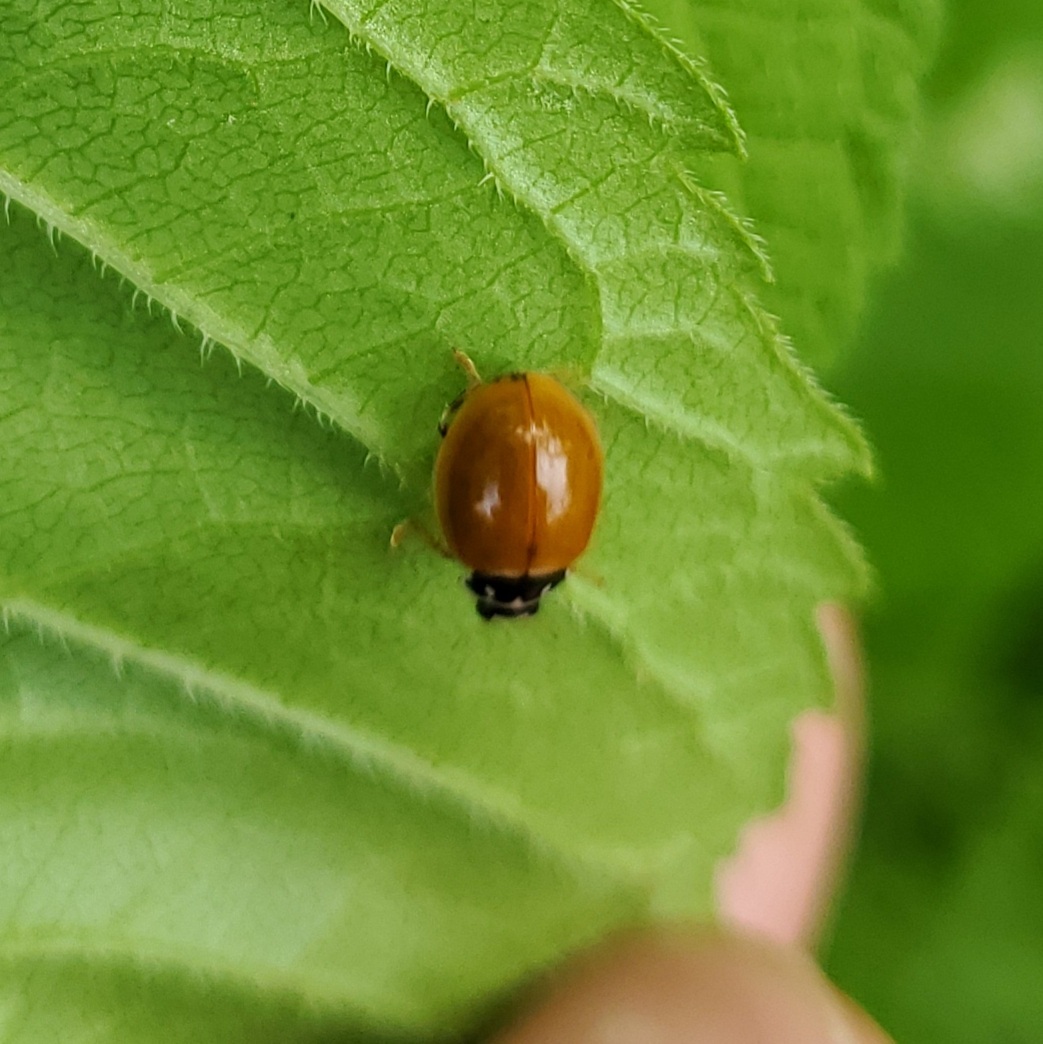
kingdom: Animalia
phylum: Arthropoda
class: Insecta
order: Coleoptera
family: Coccinellidae
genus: Cycloneda
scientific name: Cycloneda munda
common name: Polished lady beetle
